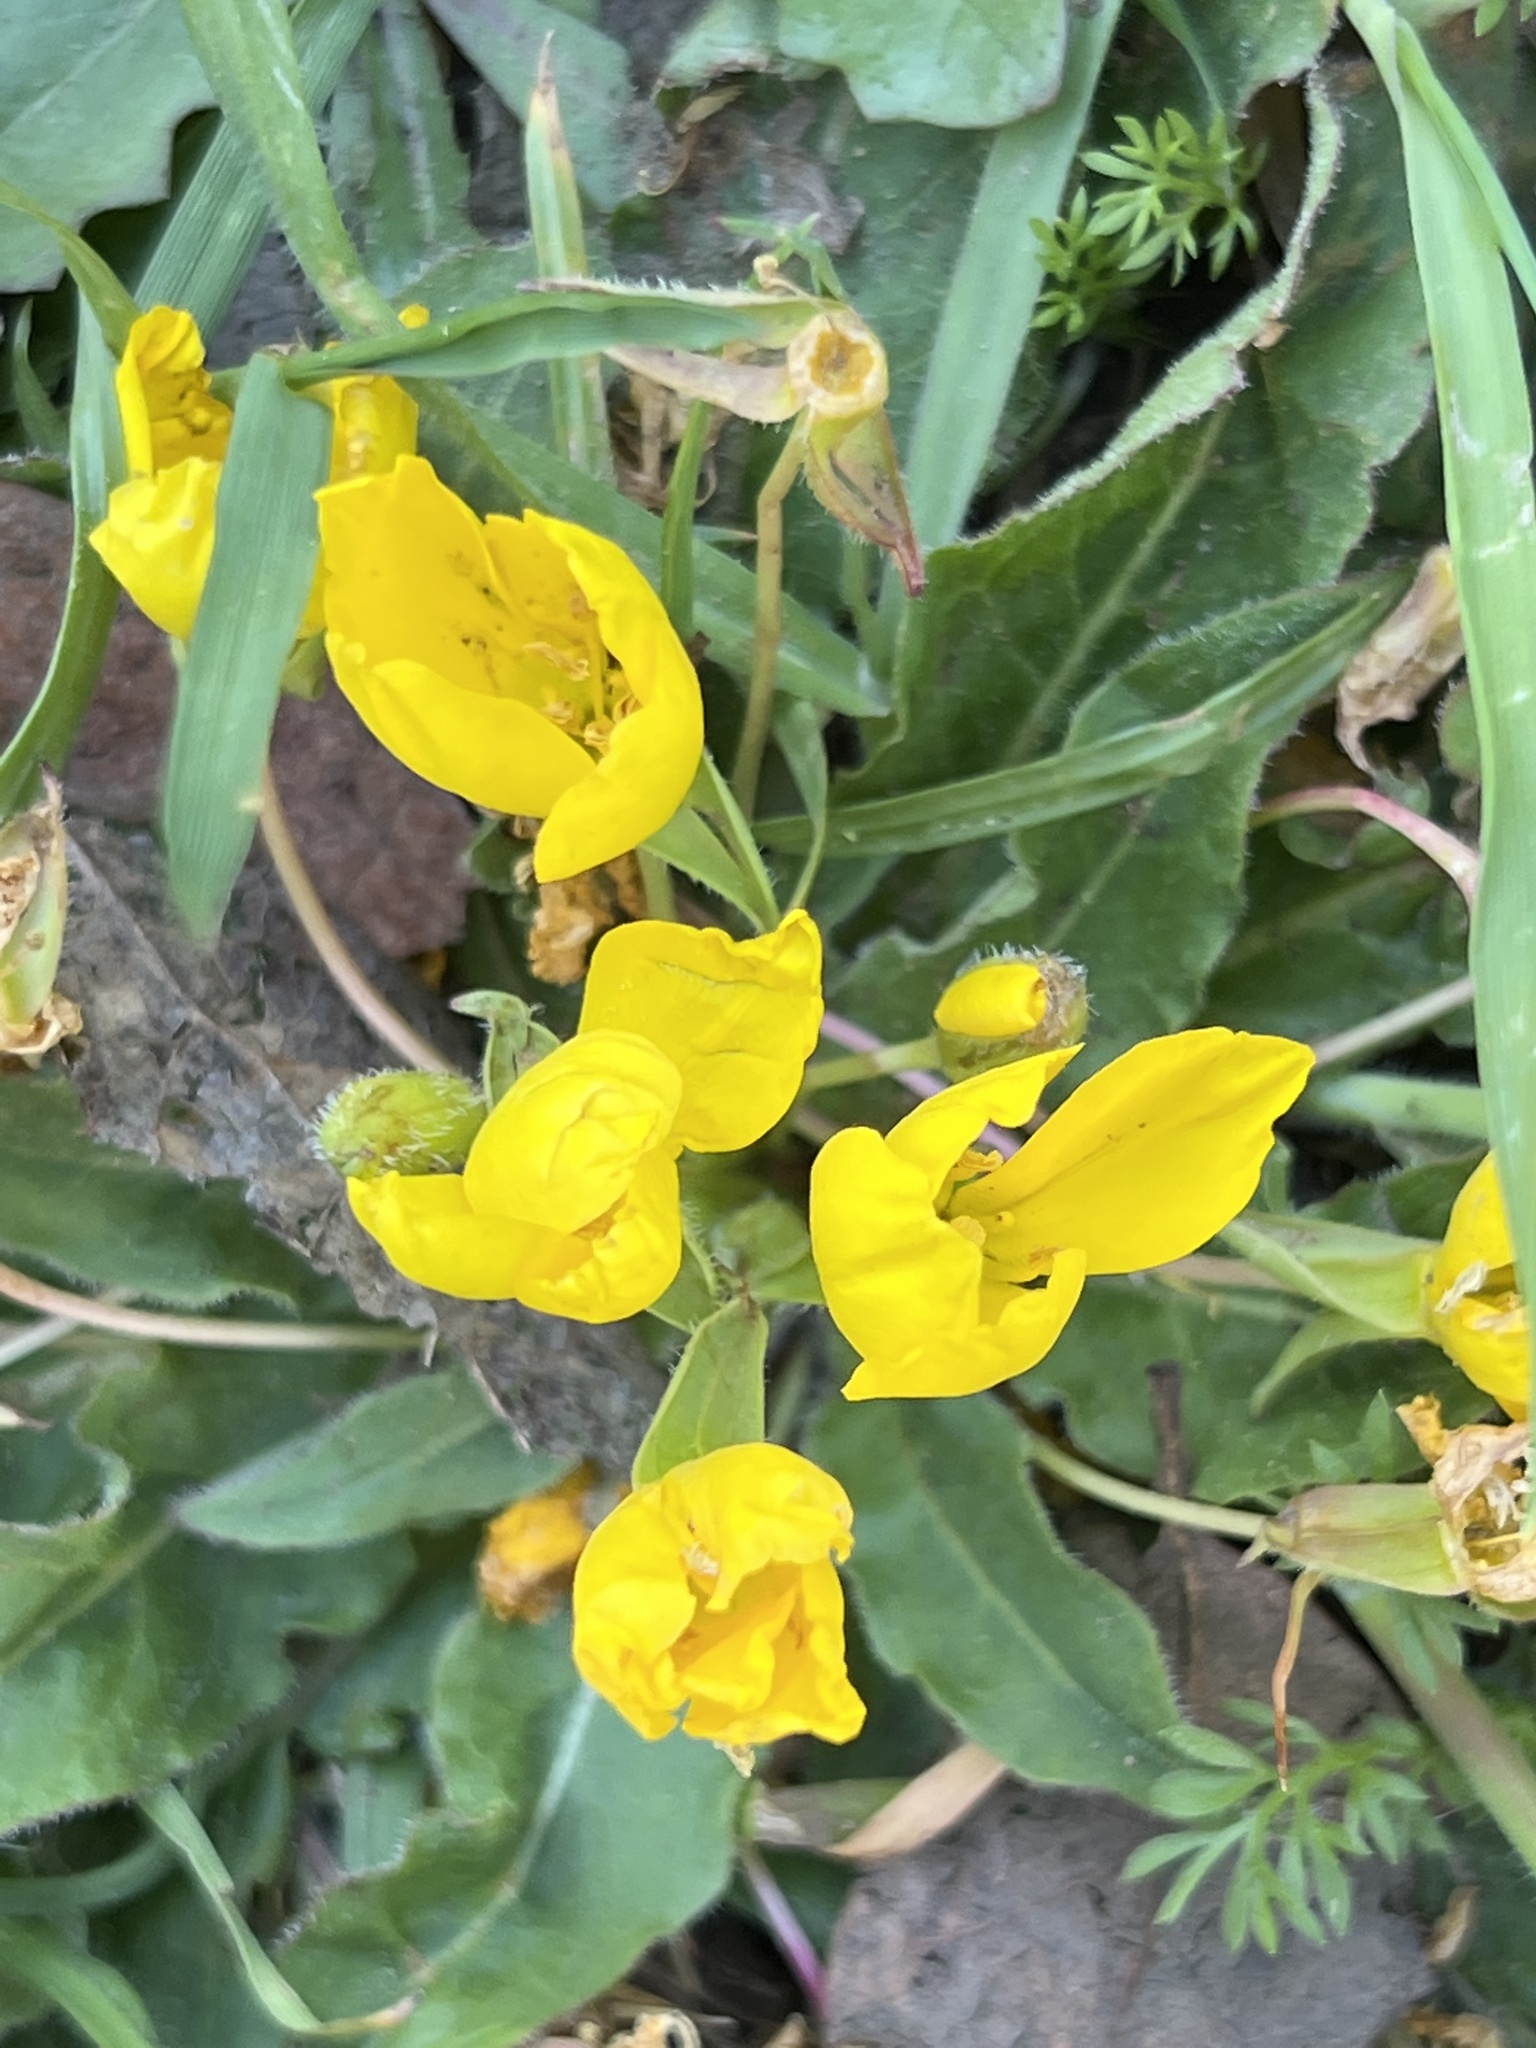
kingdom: Plantae
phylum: Tracheophyta
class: Magnoliopsida
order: Myrtales
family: Onagraceae
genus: Taraxia
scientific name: Taraxia ovata
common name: Goldeneggs
